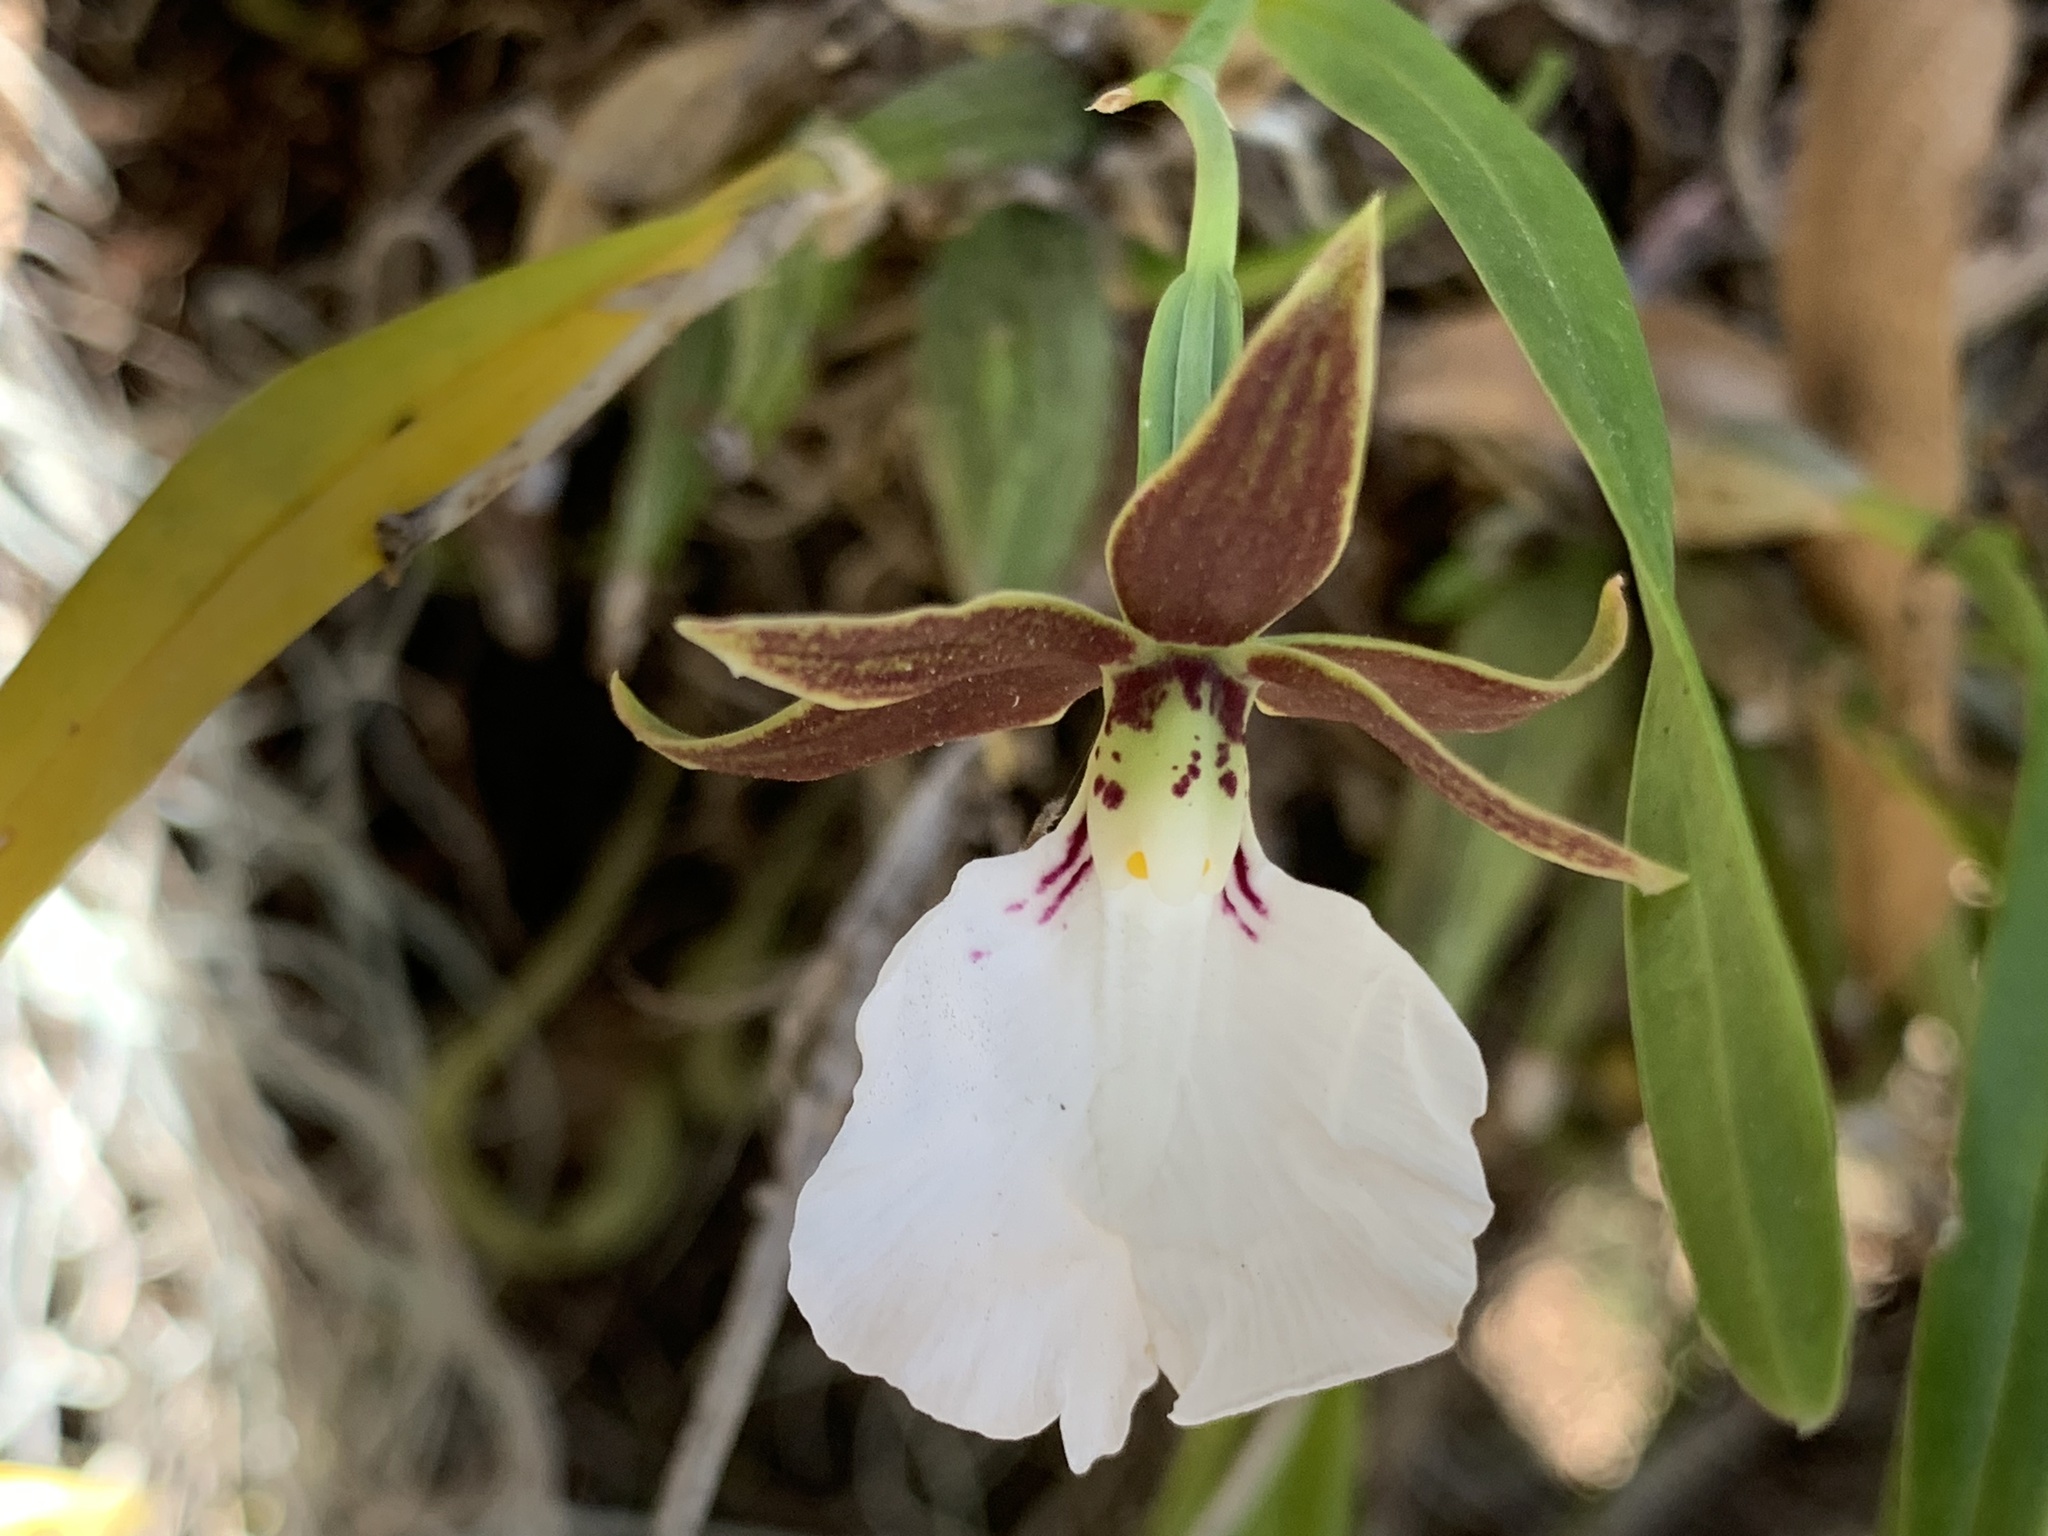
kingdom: Plantae
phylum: Tracheophyta
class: Liliopsida
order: Asparagales
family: Orchidaceae
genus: Prosthechea
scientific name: Prosthechea ghiesbreghtiana
